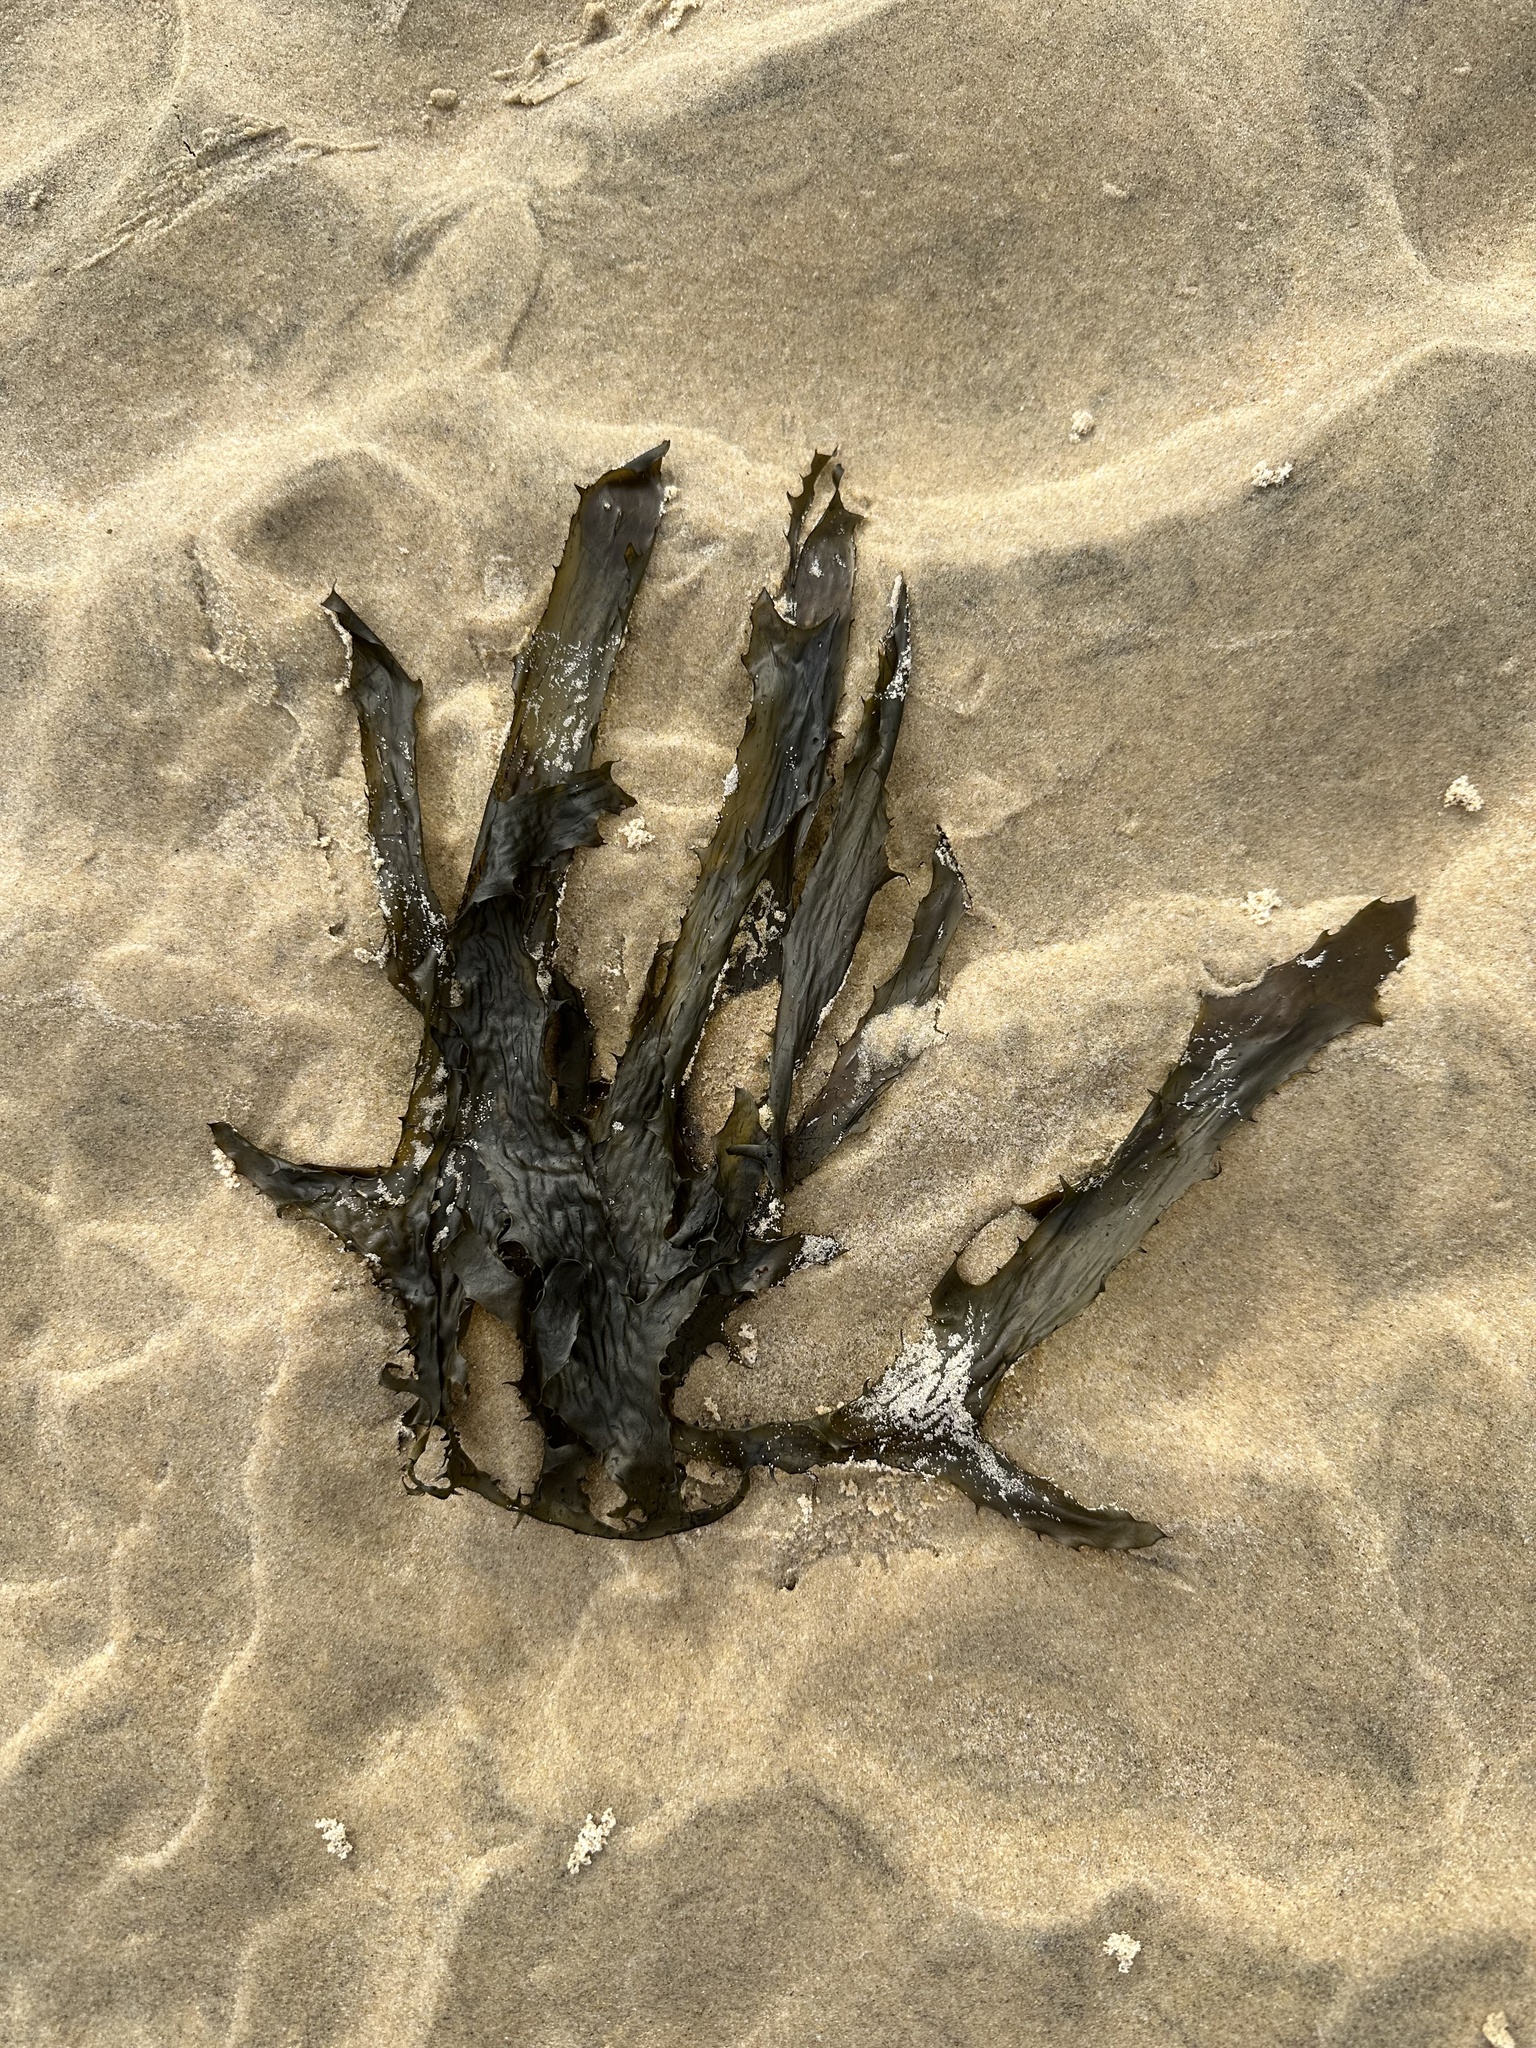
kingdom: Chromista
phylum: Ochrophyta
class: Phaeophyceae
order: Laminariales
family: Lessoniaceae
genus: Ecklonia
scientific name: Ecklonia radiata
